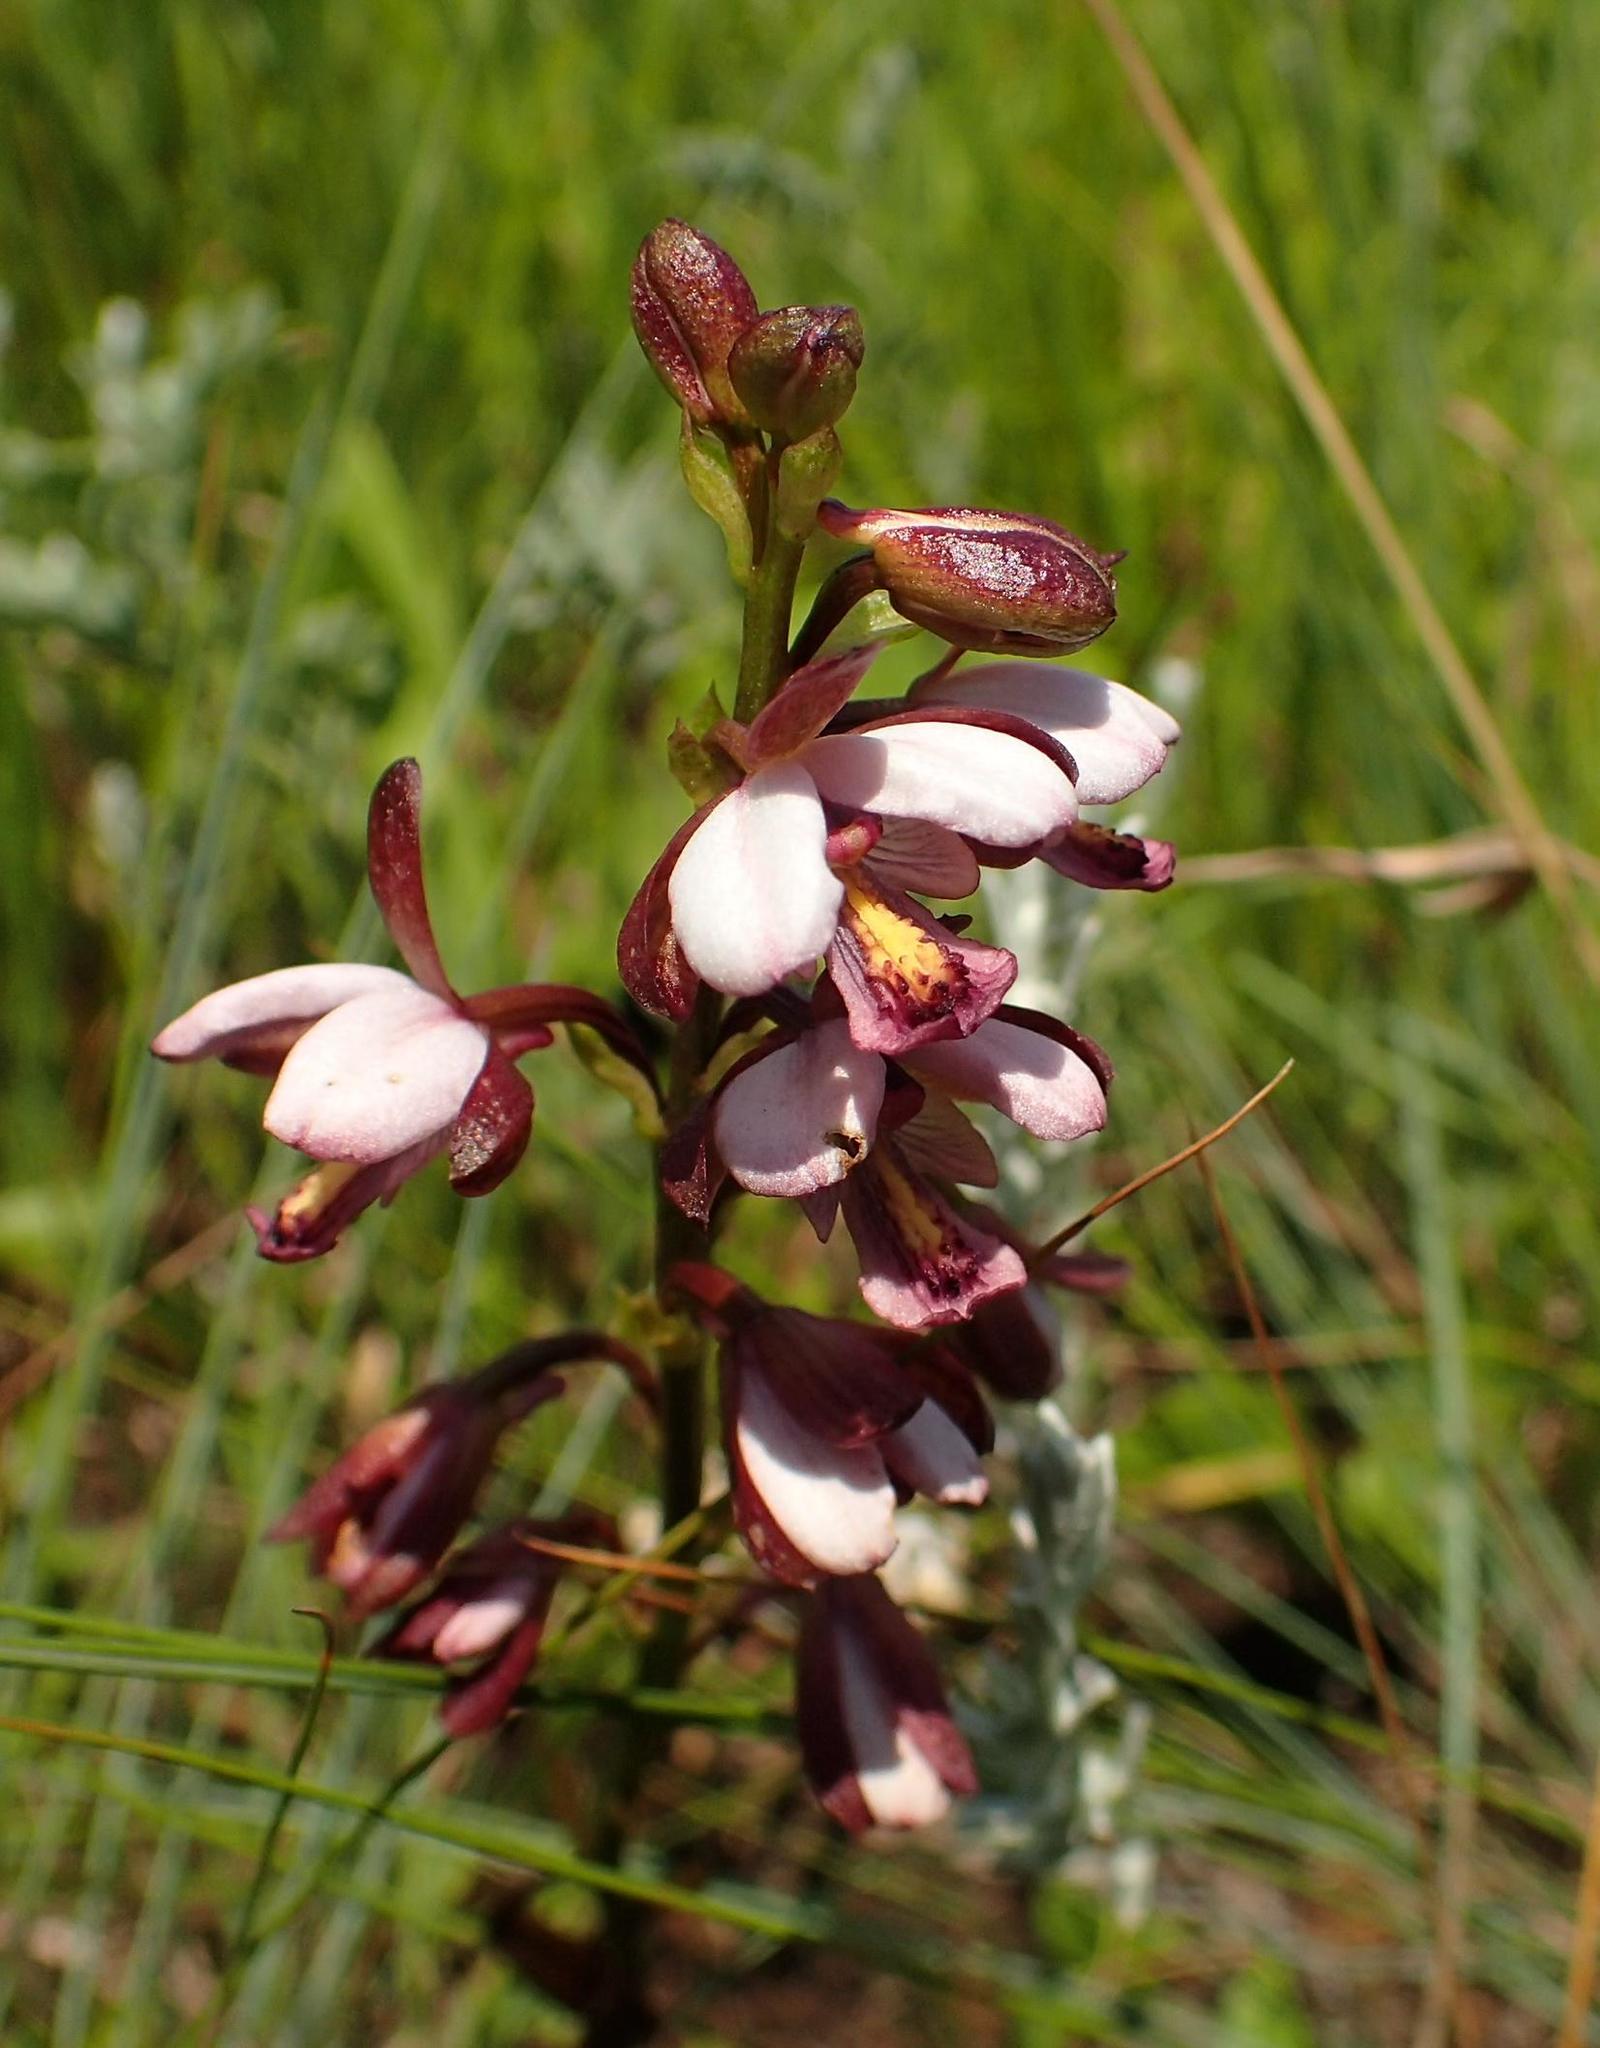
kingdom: Plantae
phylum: Tracheophyta
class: Liliopsida
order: Asparagales
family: Orchidaceae
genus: Eulophia
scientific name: Eulophia zeyheriana
